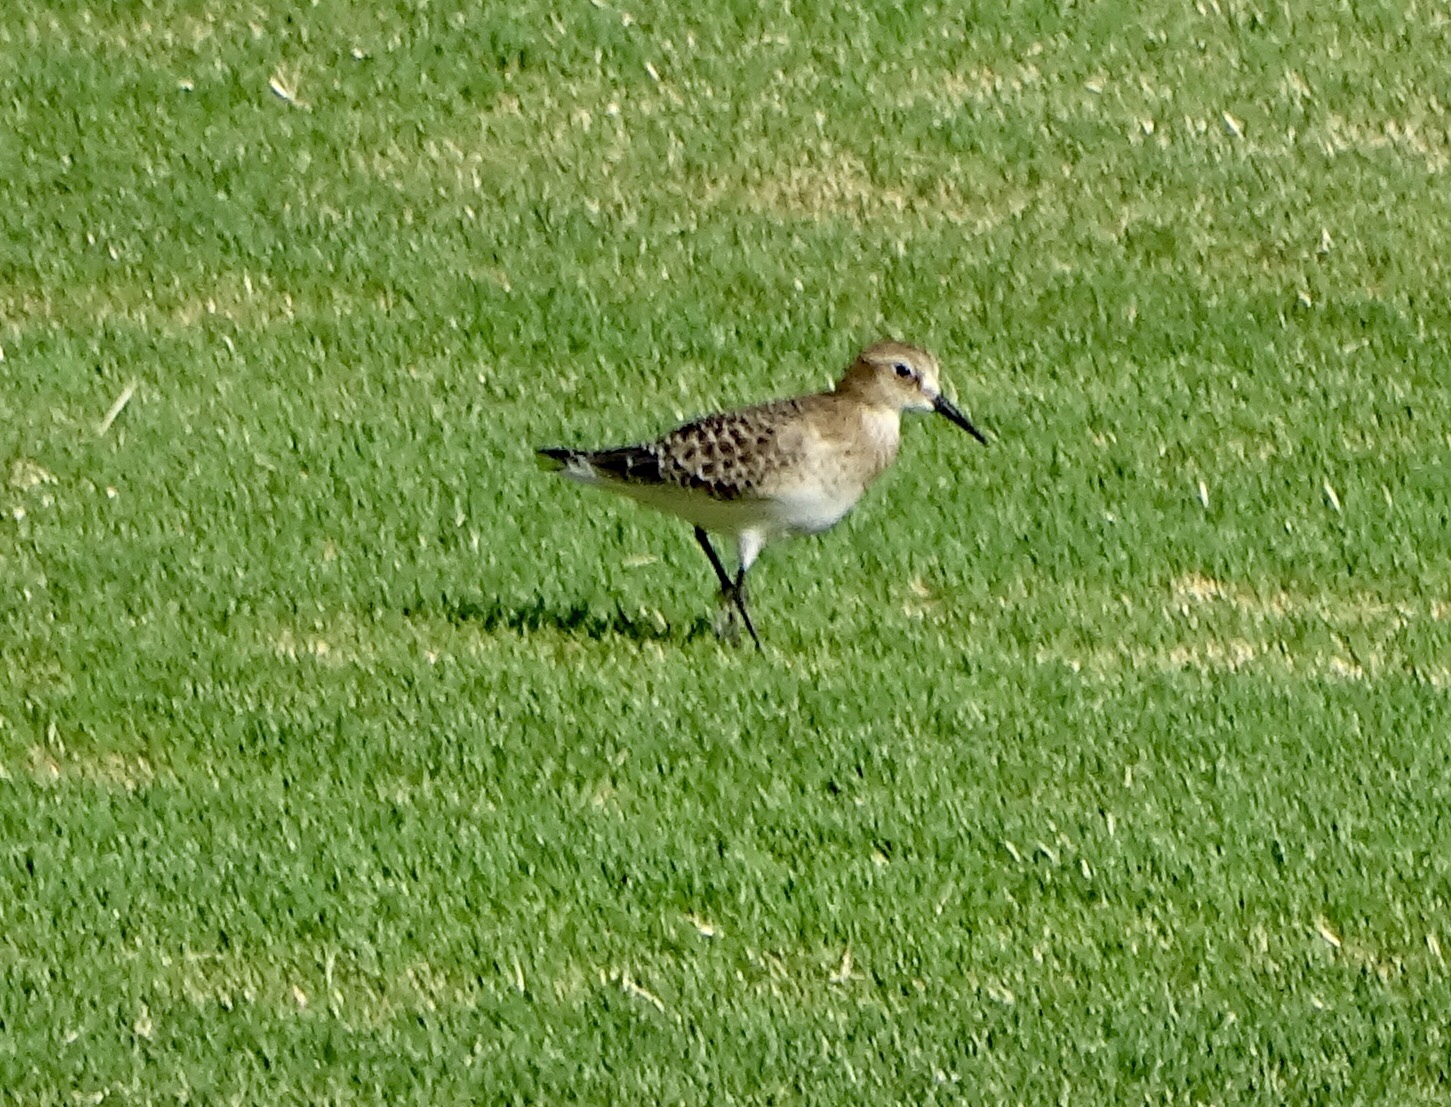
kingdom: Animalia
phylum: Chordata
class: Aves
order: Charadriiformes
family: Scolopacidae
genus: Calidris
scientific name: Calidris bairdii
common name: Baird's sandpiper
